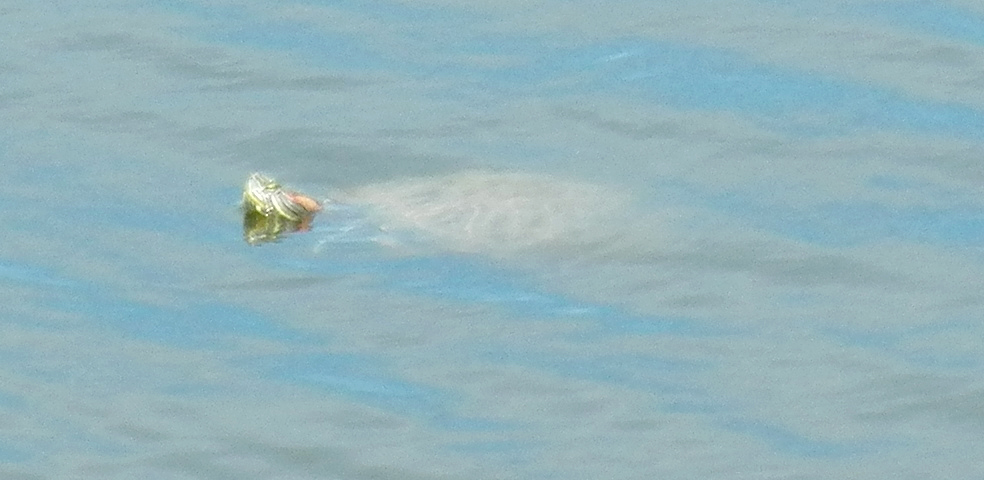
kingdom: Animalia
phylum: Chordata
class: Testudines
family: Emydidae
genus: Trachemys
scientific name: Trachemys scripta
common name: Slider
